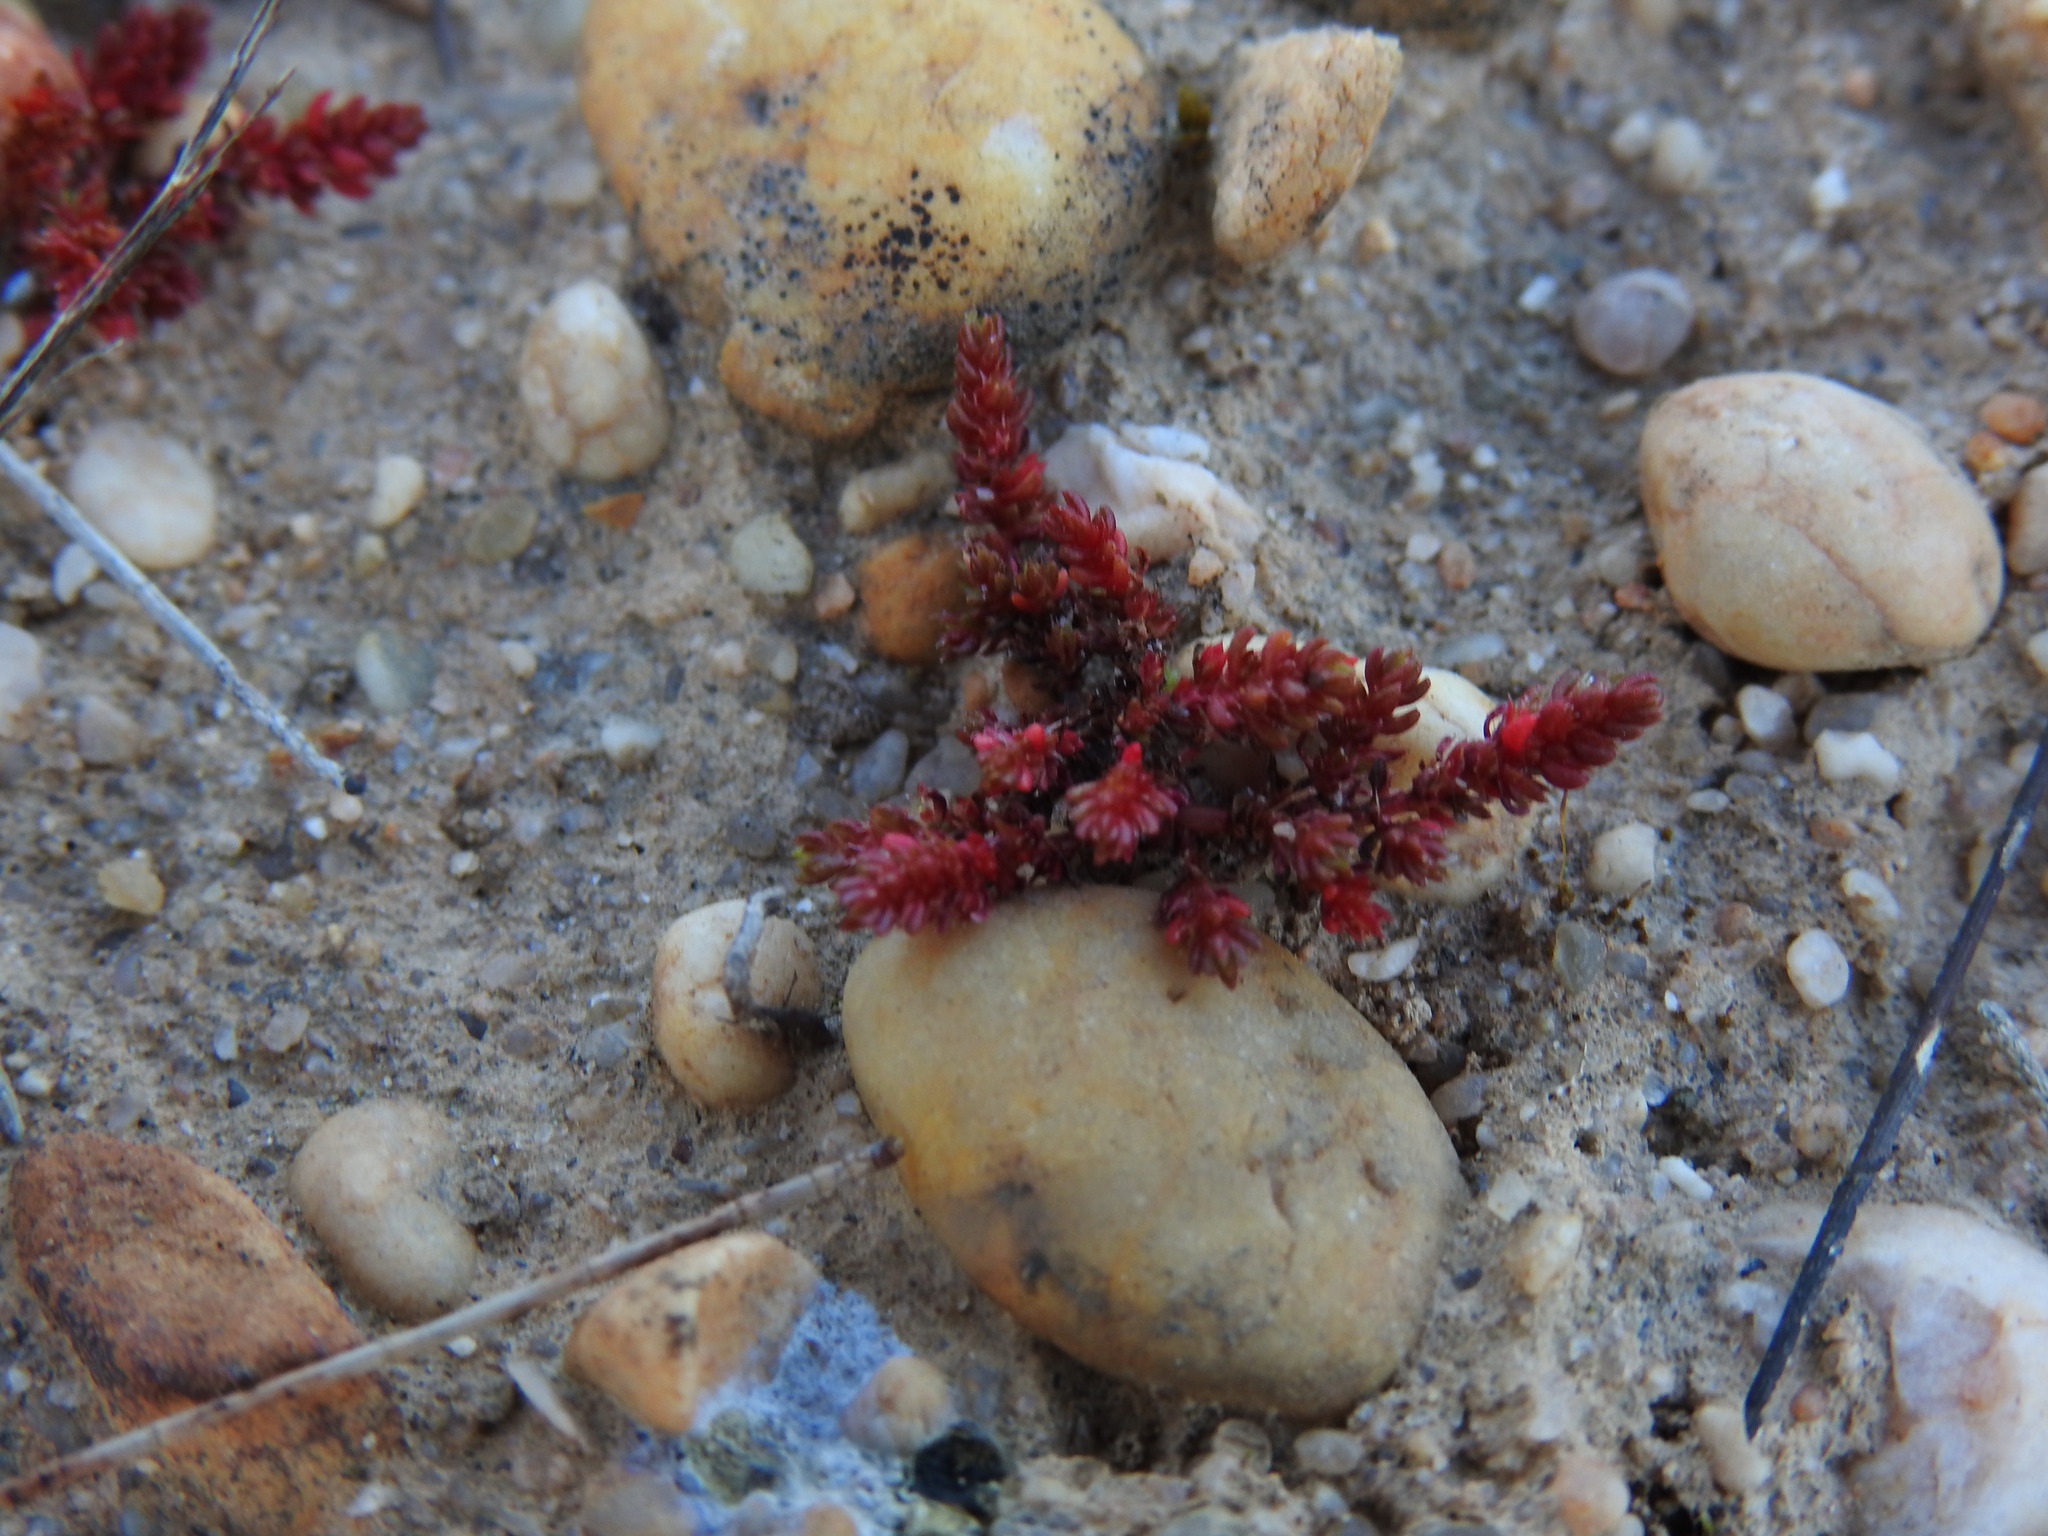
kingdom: Plantae
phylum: Tracheophyta
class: Magnoliopsida
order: Saxifragales
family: Crassulaceae
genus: Crassula
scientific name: Crassula tillaea
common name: Mossy stonecrop
